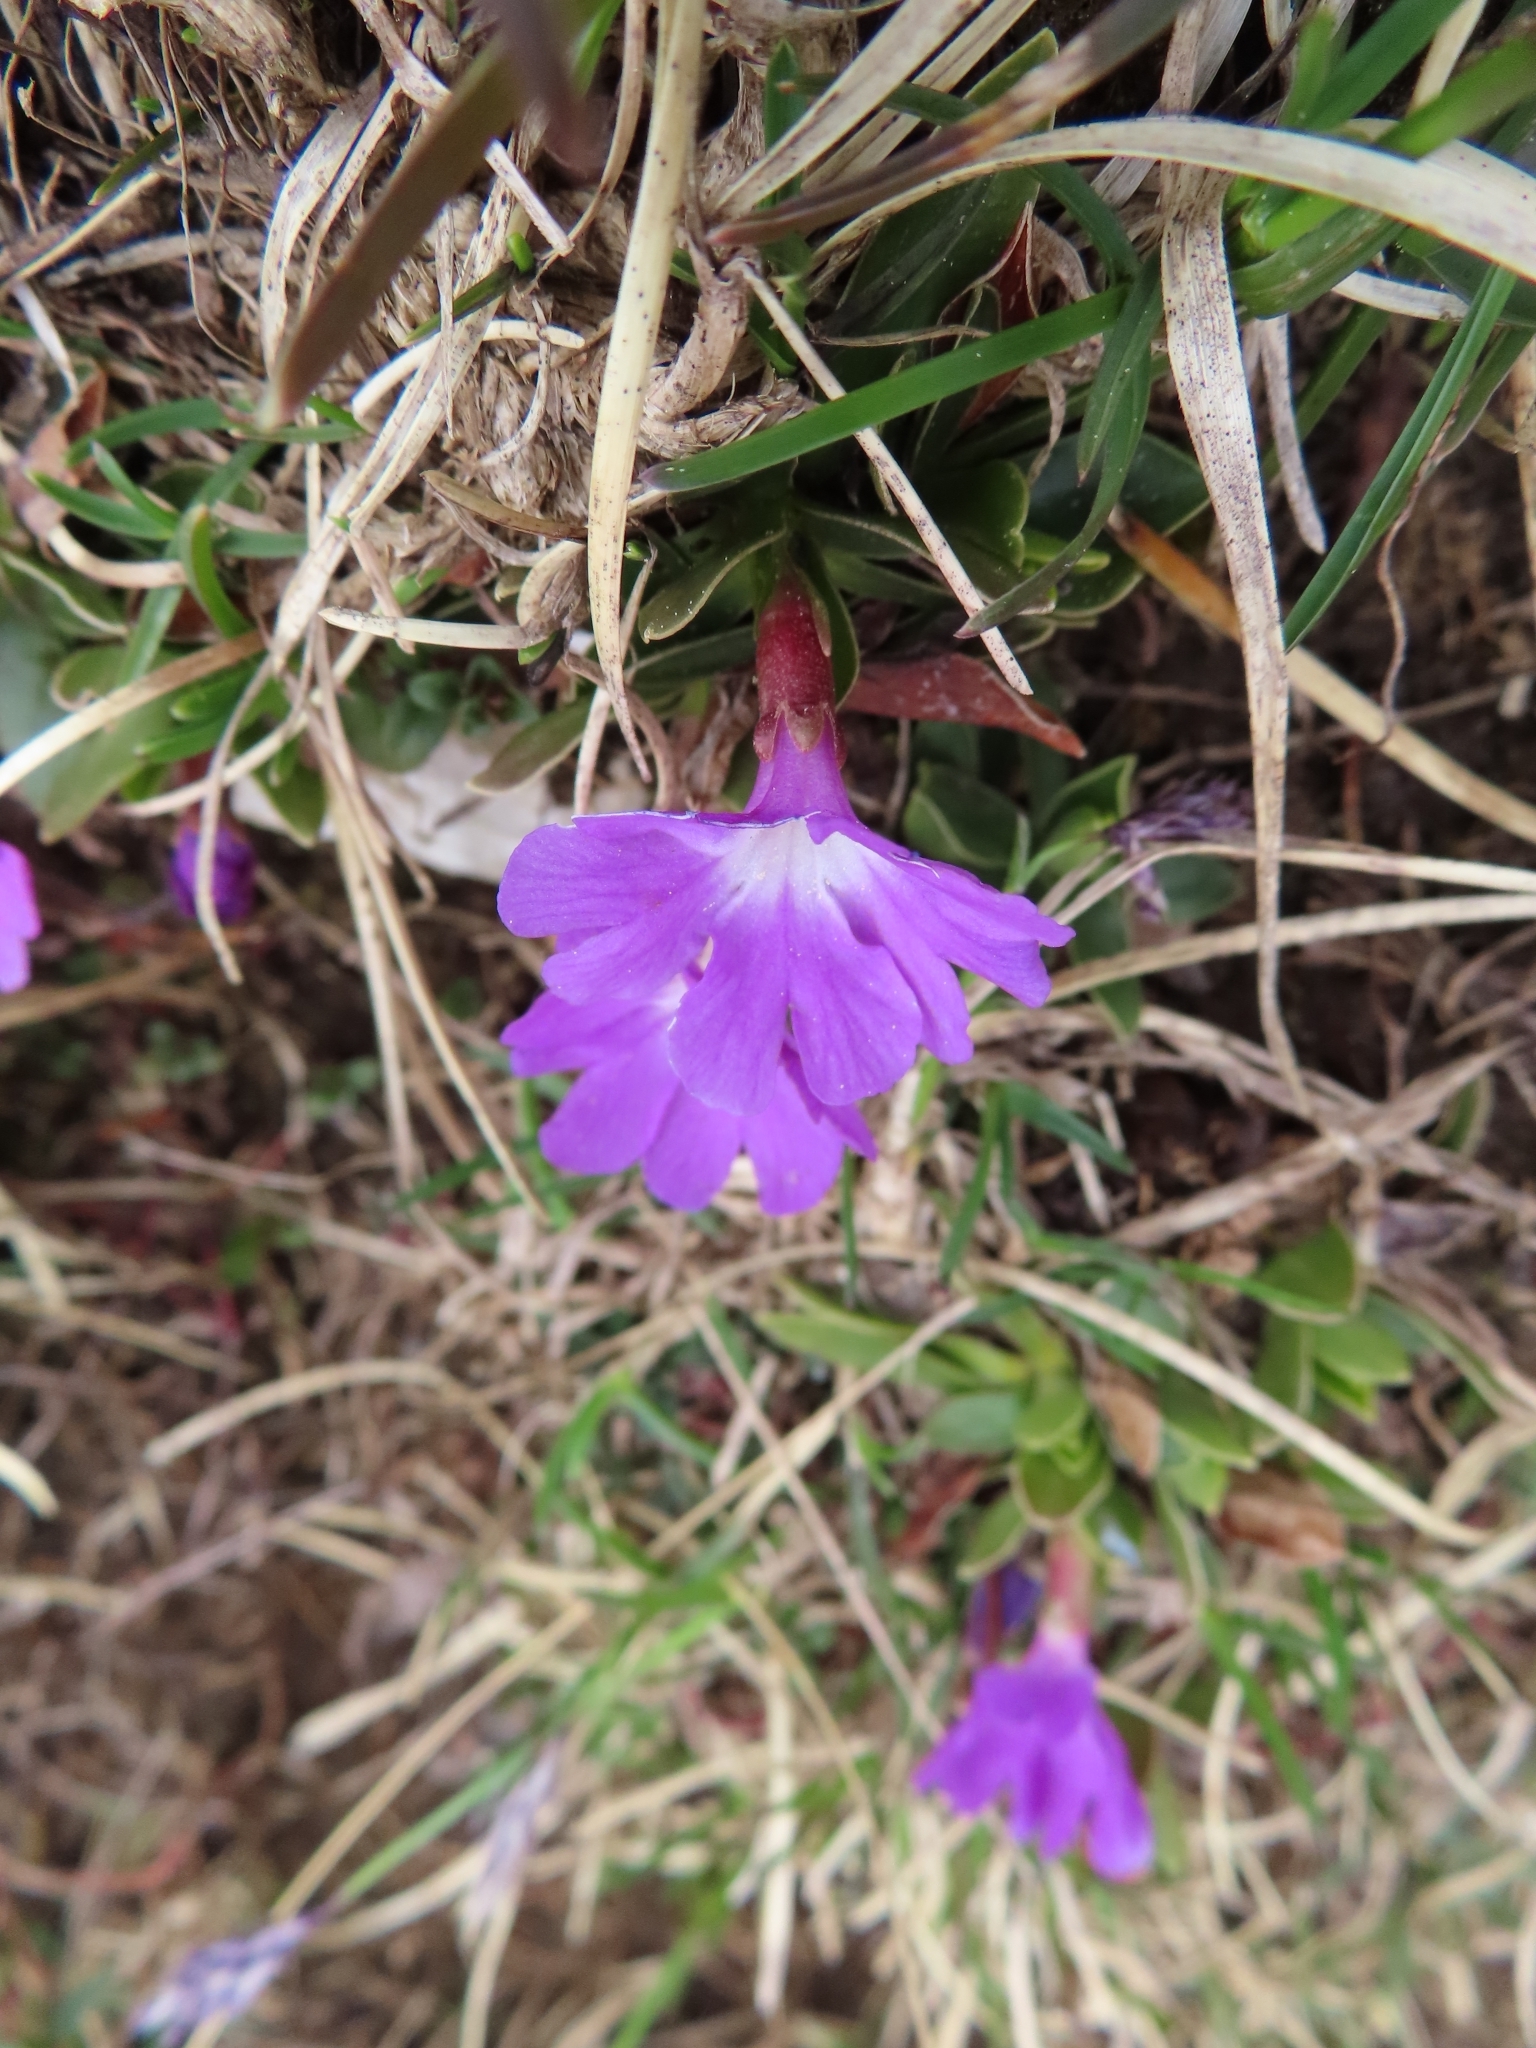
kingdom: Plantae
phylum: Tracheophyta
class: Magnoliopsida
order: Ericales
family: Primulaceae
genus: Primula
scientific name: Primula wulfeniana
